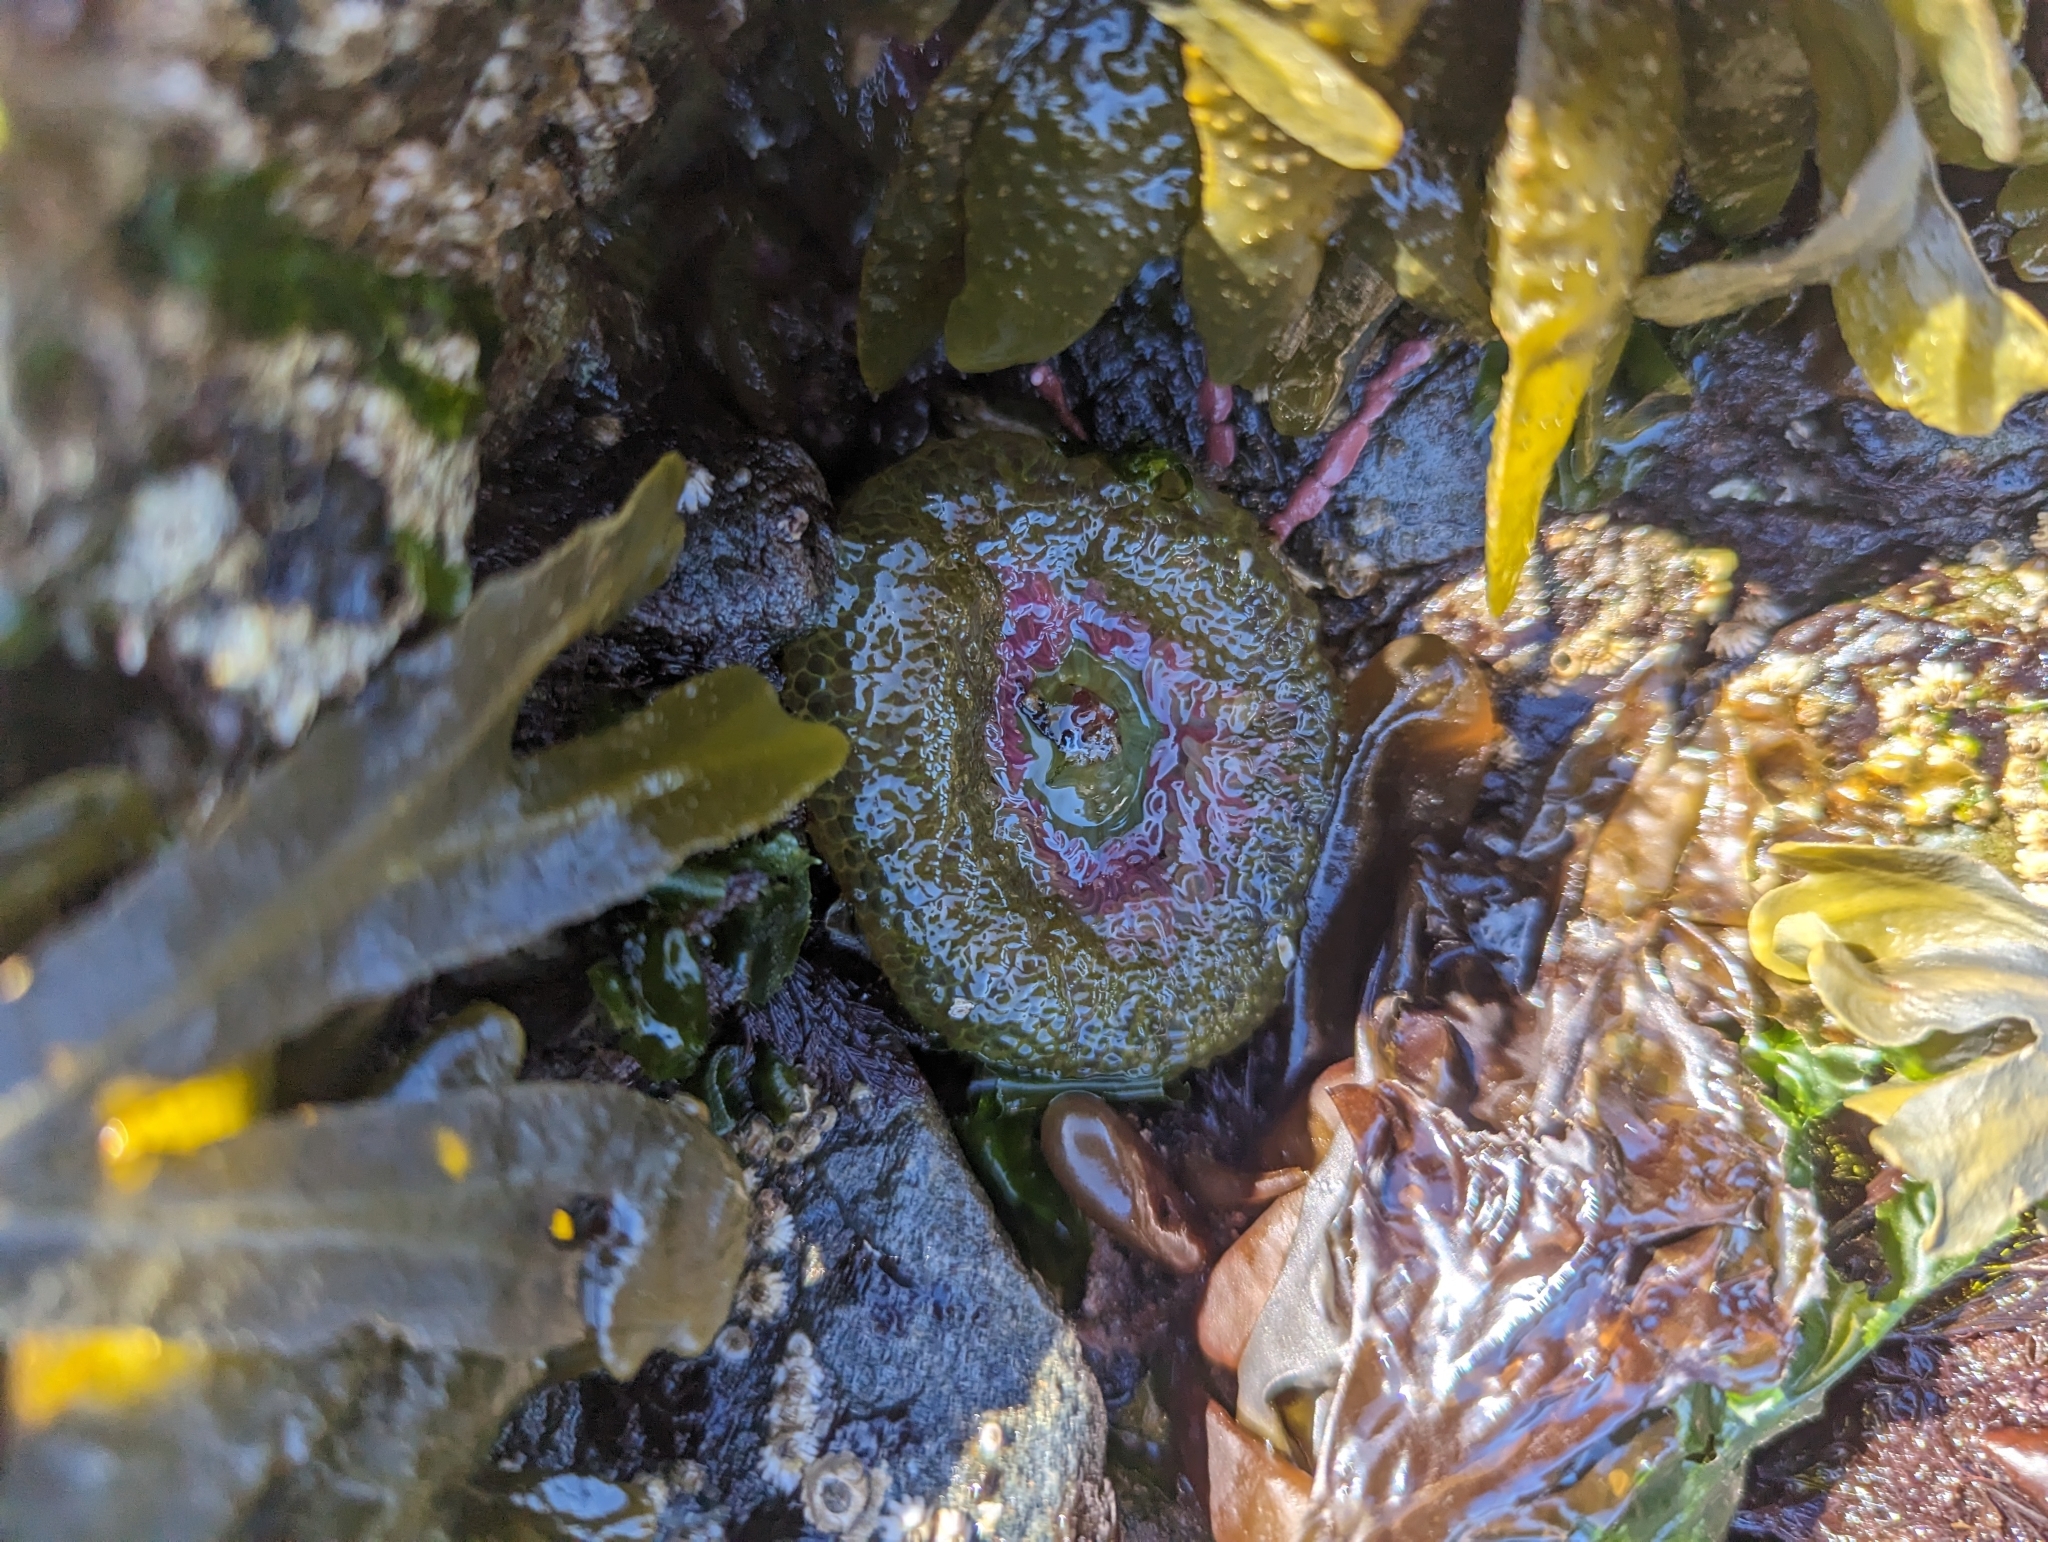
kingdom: Animalia
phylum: Cnidaria
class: Anthozoa
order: Actiniaria
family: Actiniidae
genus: Anthopleura
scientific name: Anthopleura elegantissima
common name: Clonal anemone
